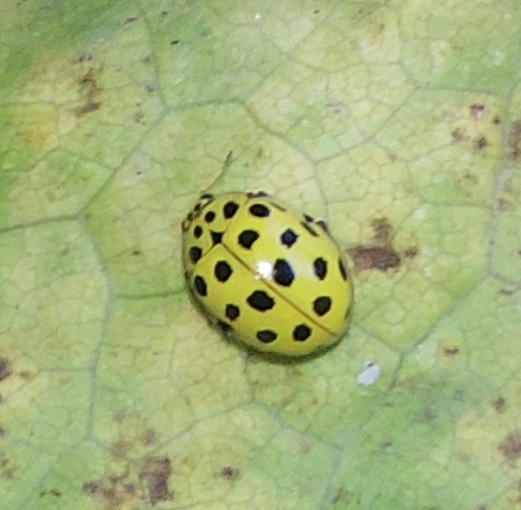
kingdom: Animalia
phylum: Arthropoda
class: Insecta
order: Coleoptera
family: Coccinellidae
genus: Psyllobora
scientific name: Psyllobora vigintiduopunctata
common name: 22-spot ladybird
